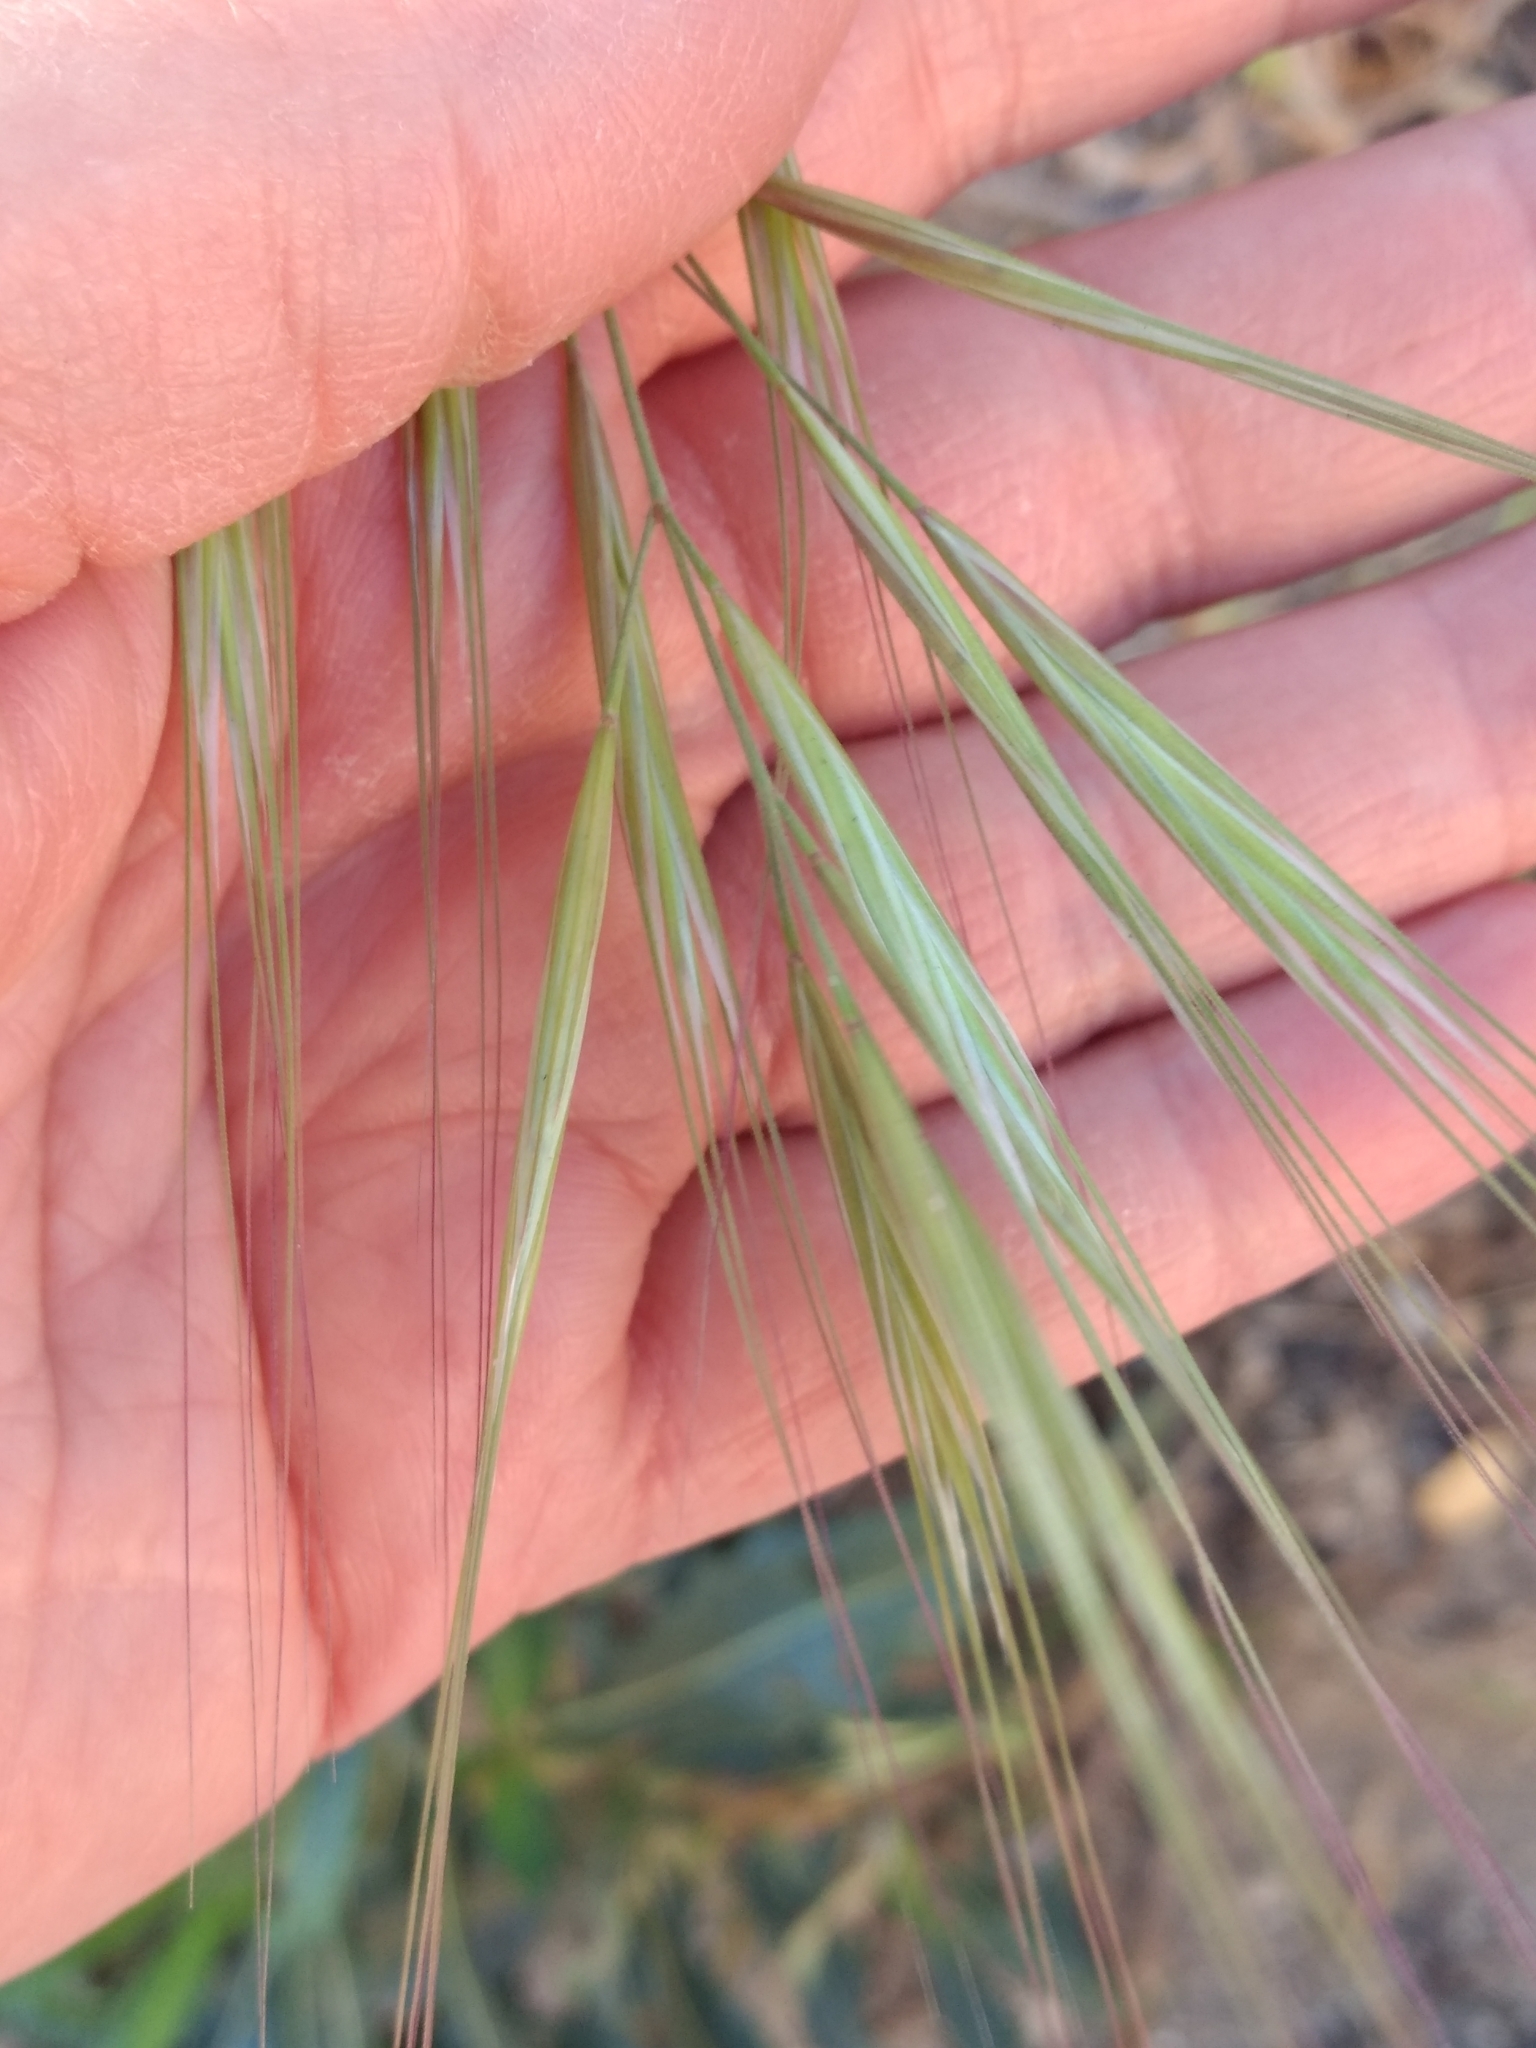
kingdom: Plantae
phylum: Tracheophyta
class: Liliopsida
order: Poales
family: Poaceae
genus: Bromus
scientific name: Bromus diandrus
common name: Ripgut brome
